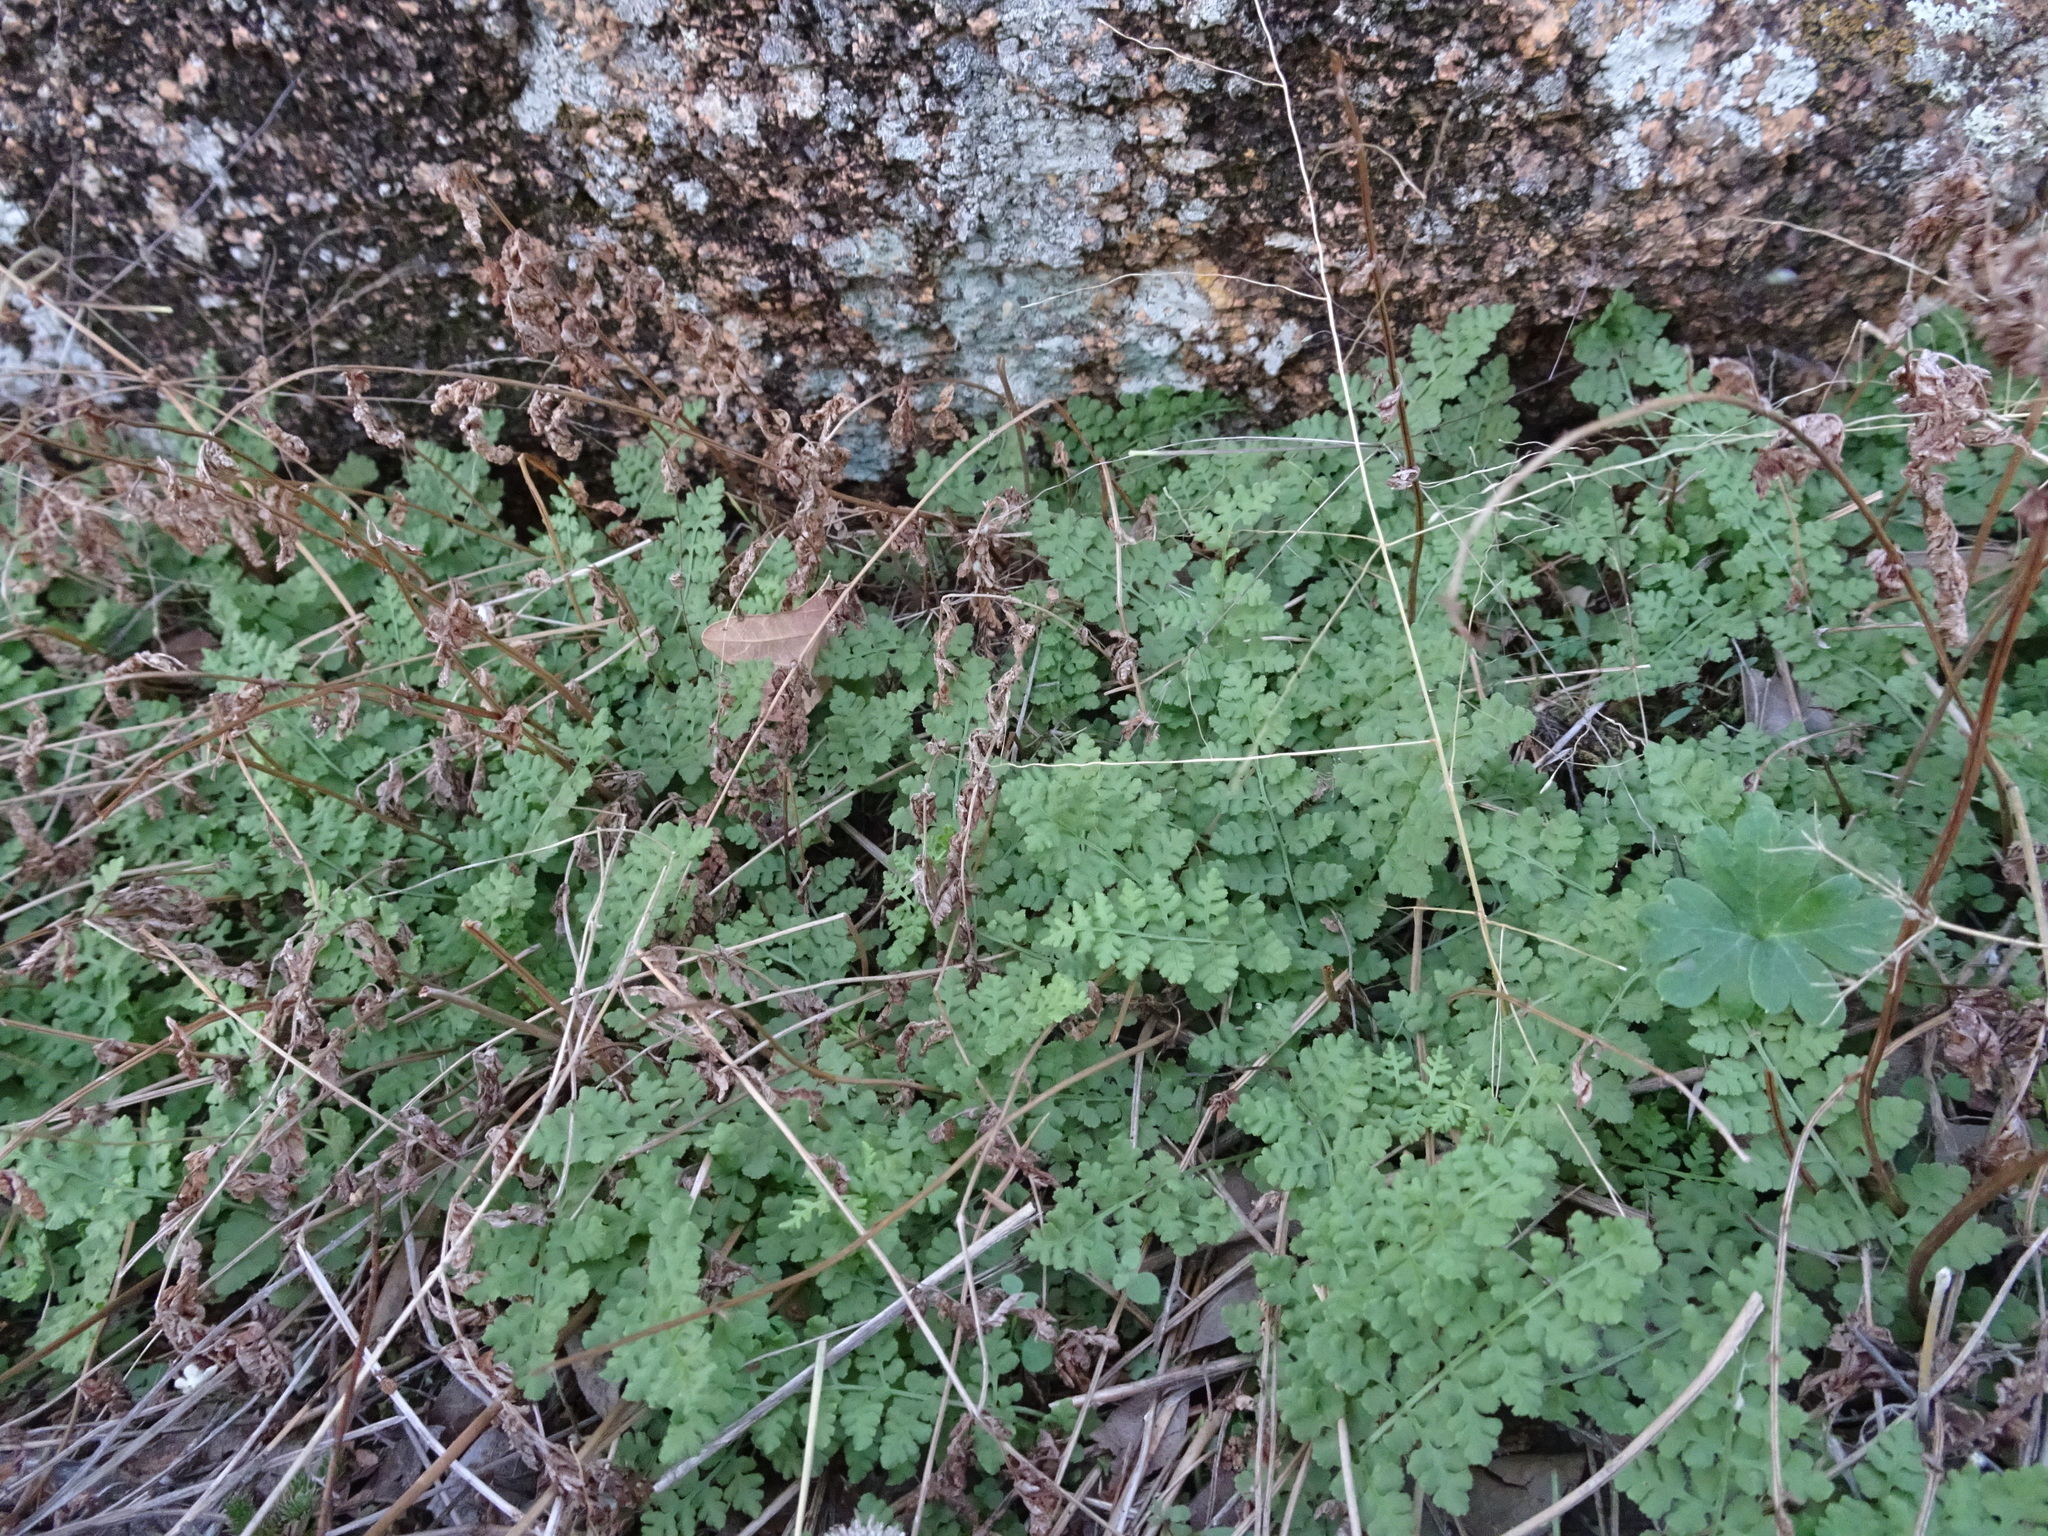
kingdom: Plantae
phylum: Tracheophyta
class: Polypodiopsida
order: Polypodiales
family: Woodsiaceae
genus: Physematium
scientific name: Physematium obtusum
